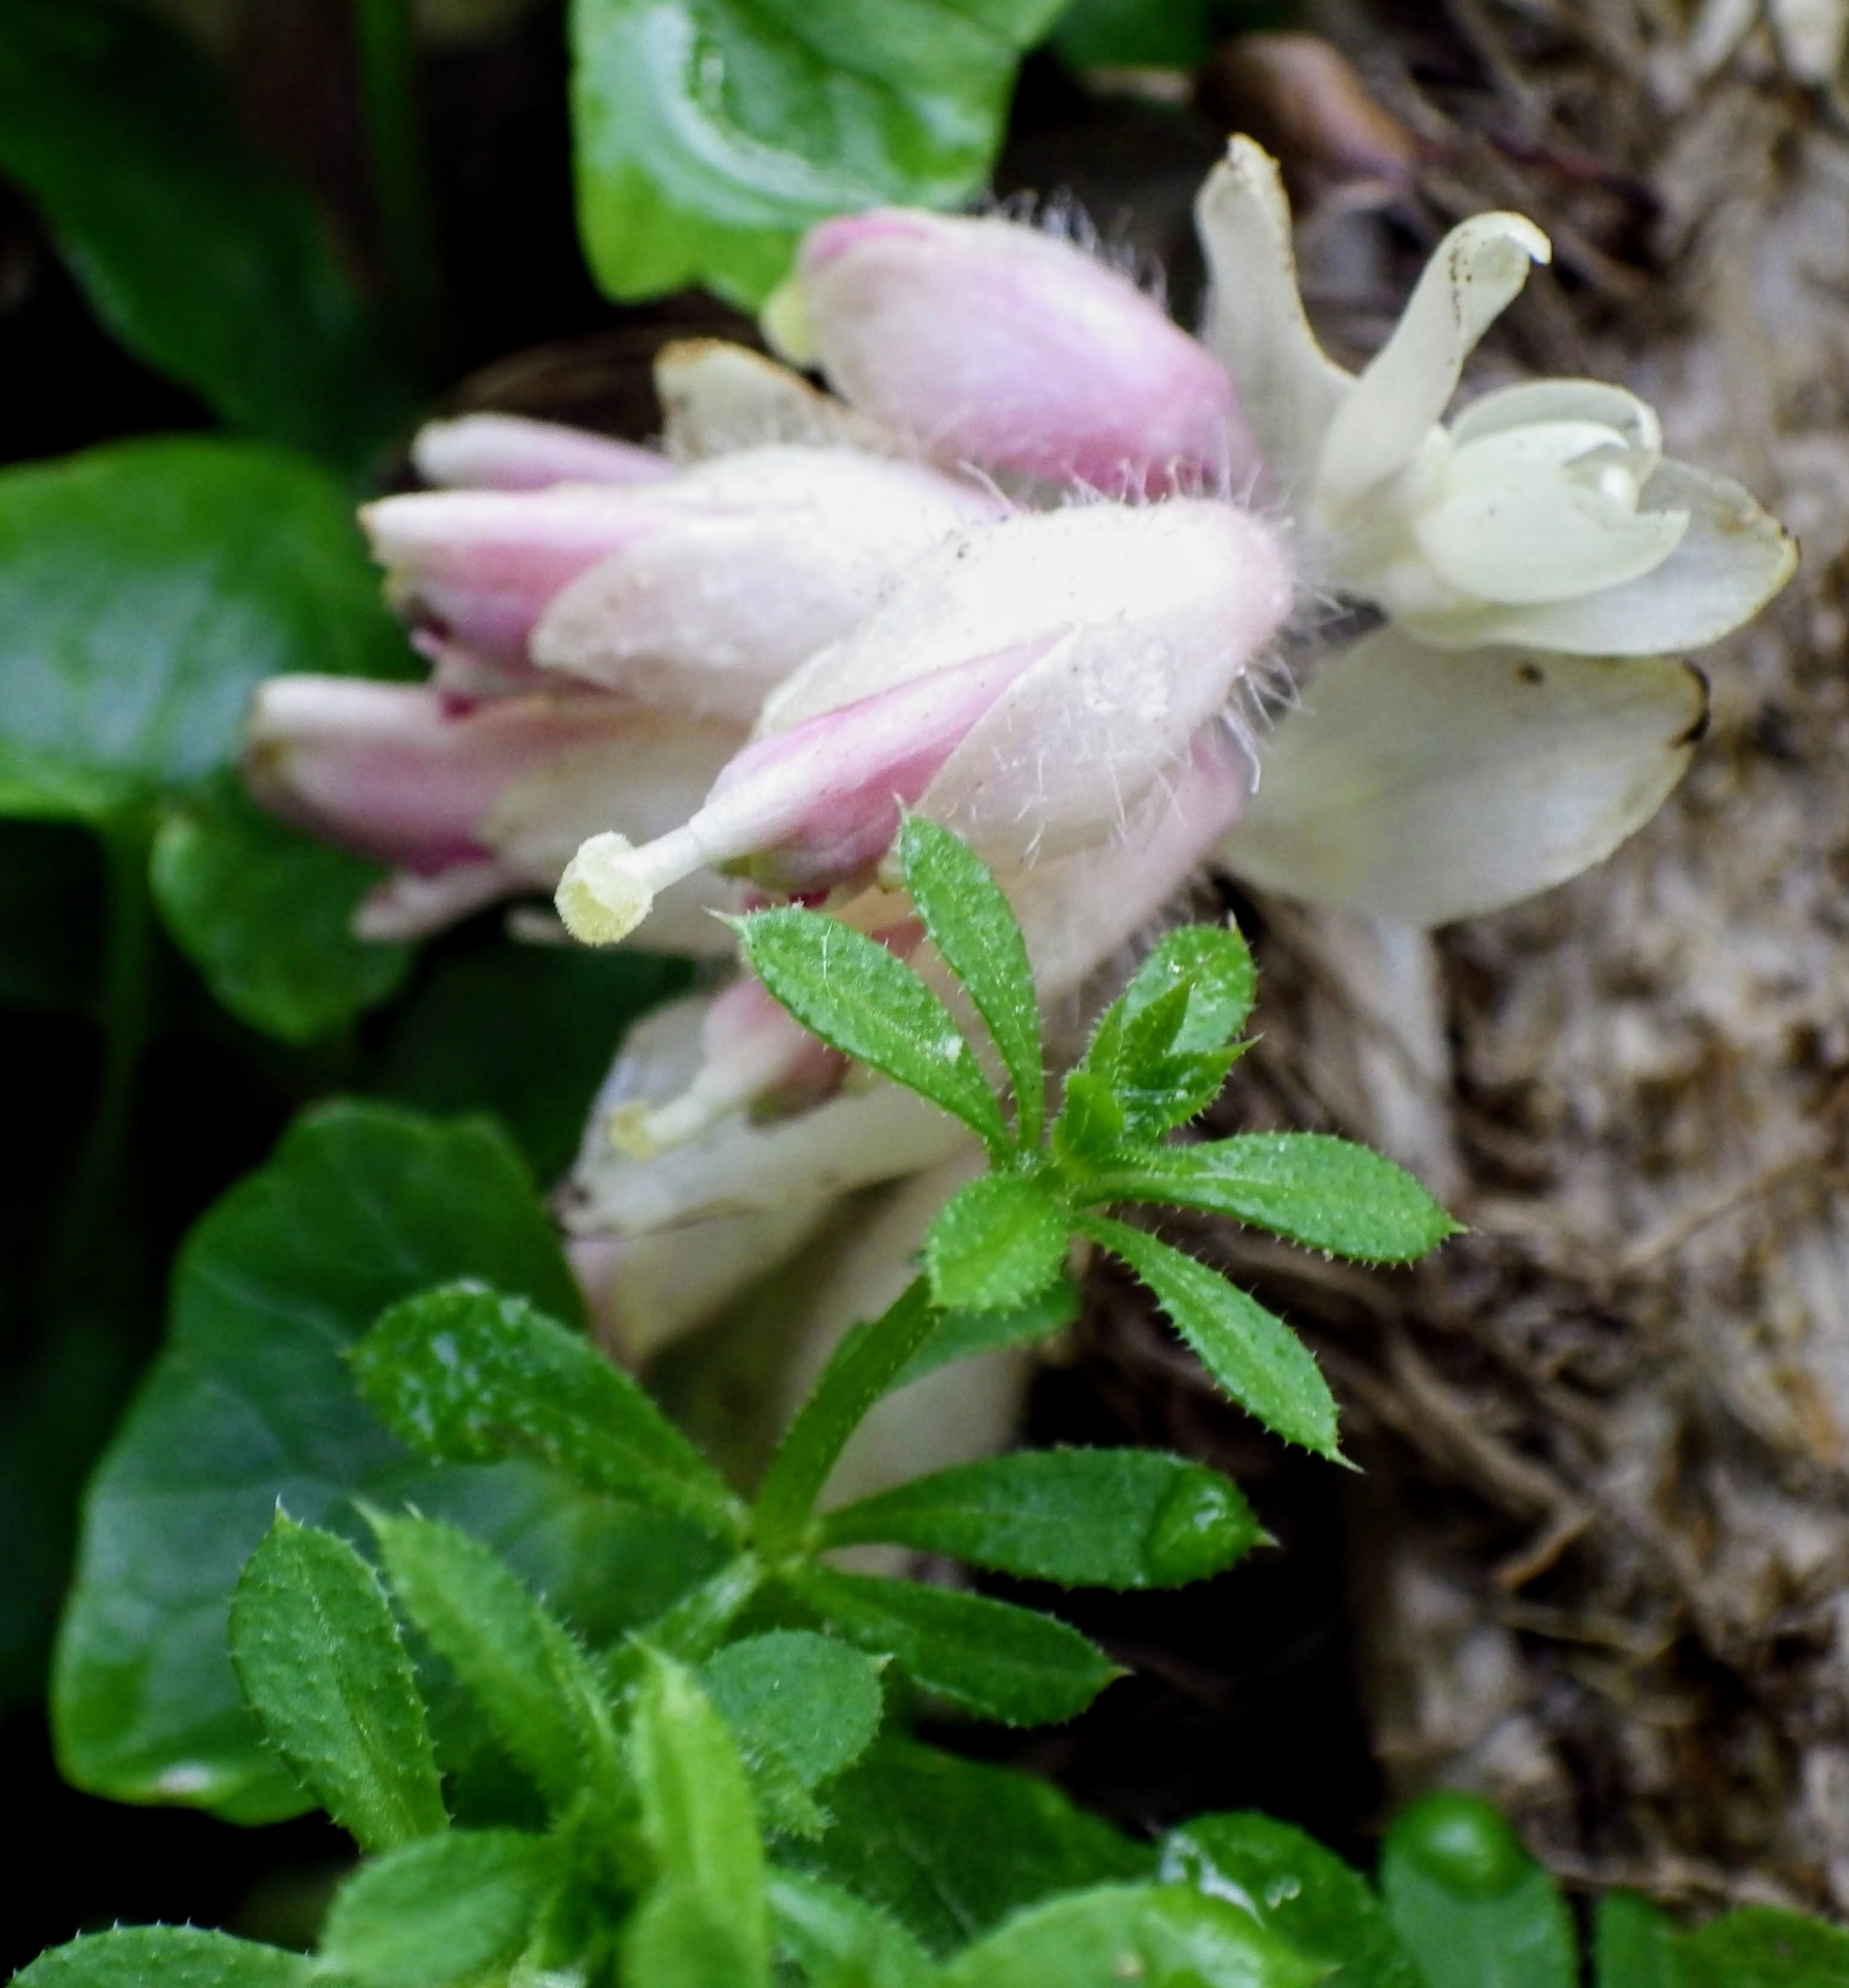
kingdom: Plantae
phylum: Tracheophyta
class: Magnoliopsida
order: Lamiales
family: Orobanchaceae
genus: Lathraea
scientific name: Lathraea squamaria
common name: Toothwort
